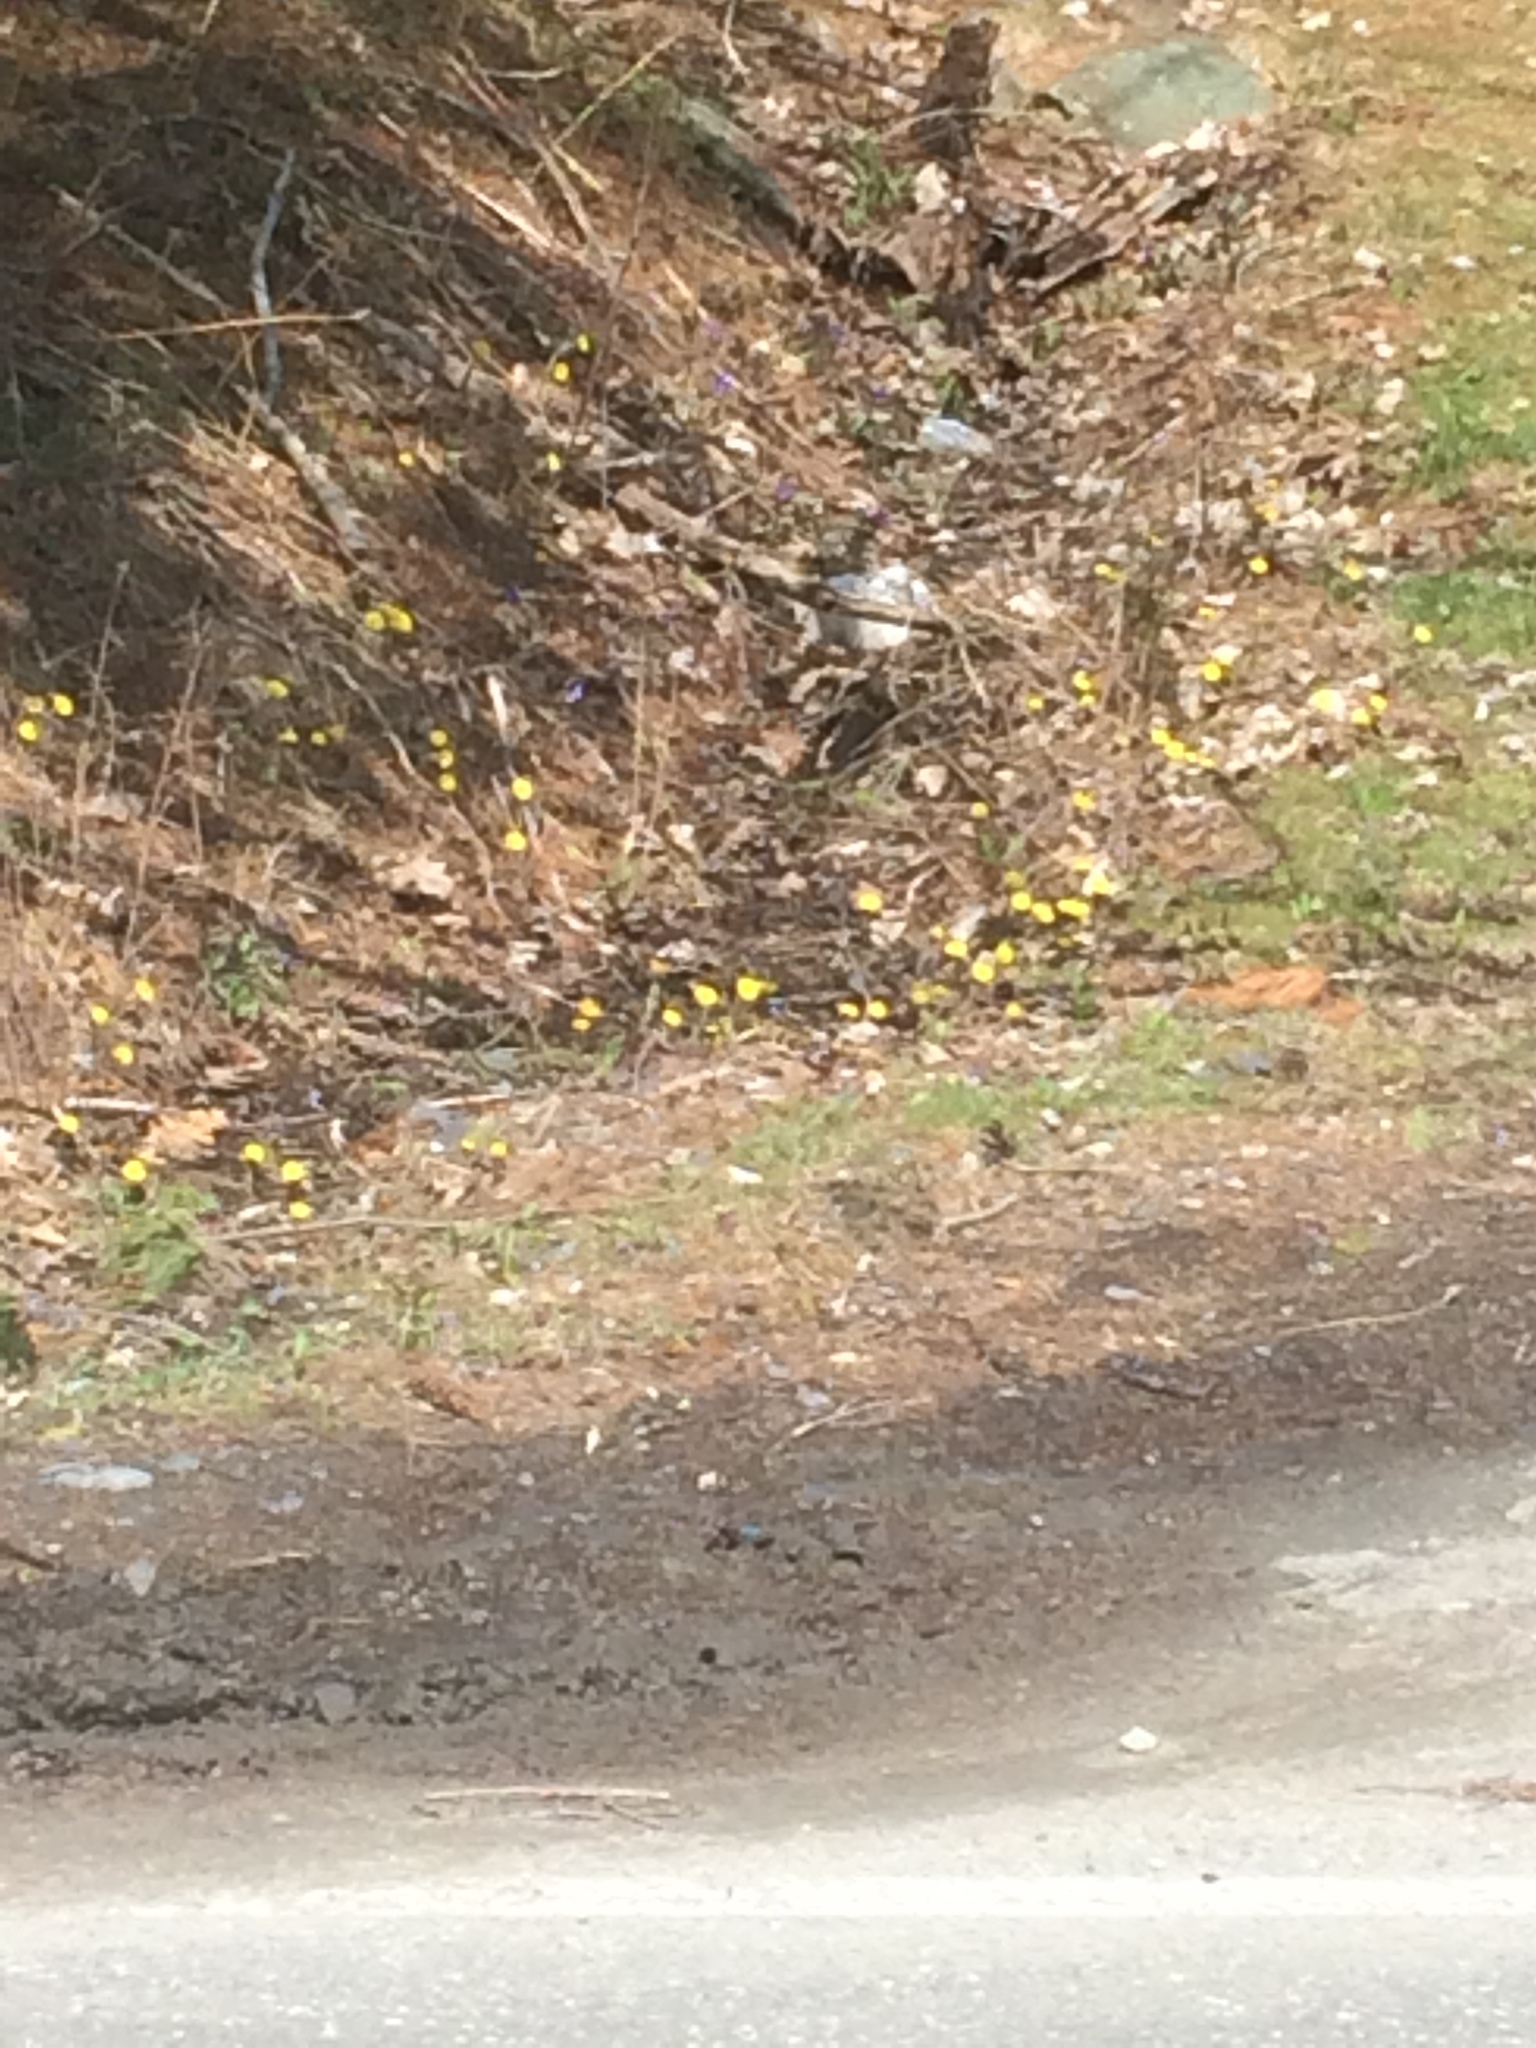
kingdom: Plantae
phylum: Tracheophyta
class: Magnoliopsida
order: Asterales
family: Asteraceae
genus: Tussilago
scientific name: Tussilago farfara
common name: Coltsfoot
